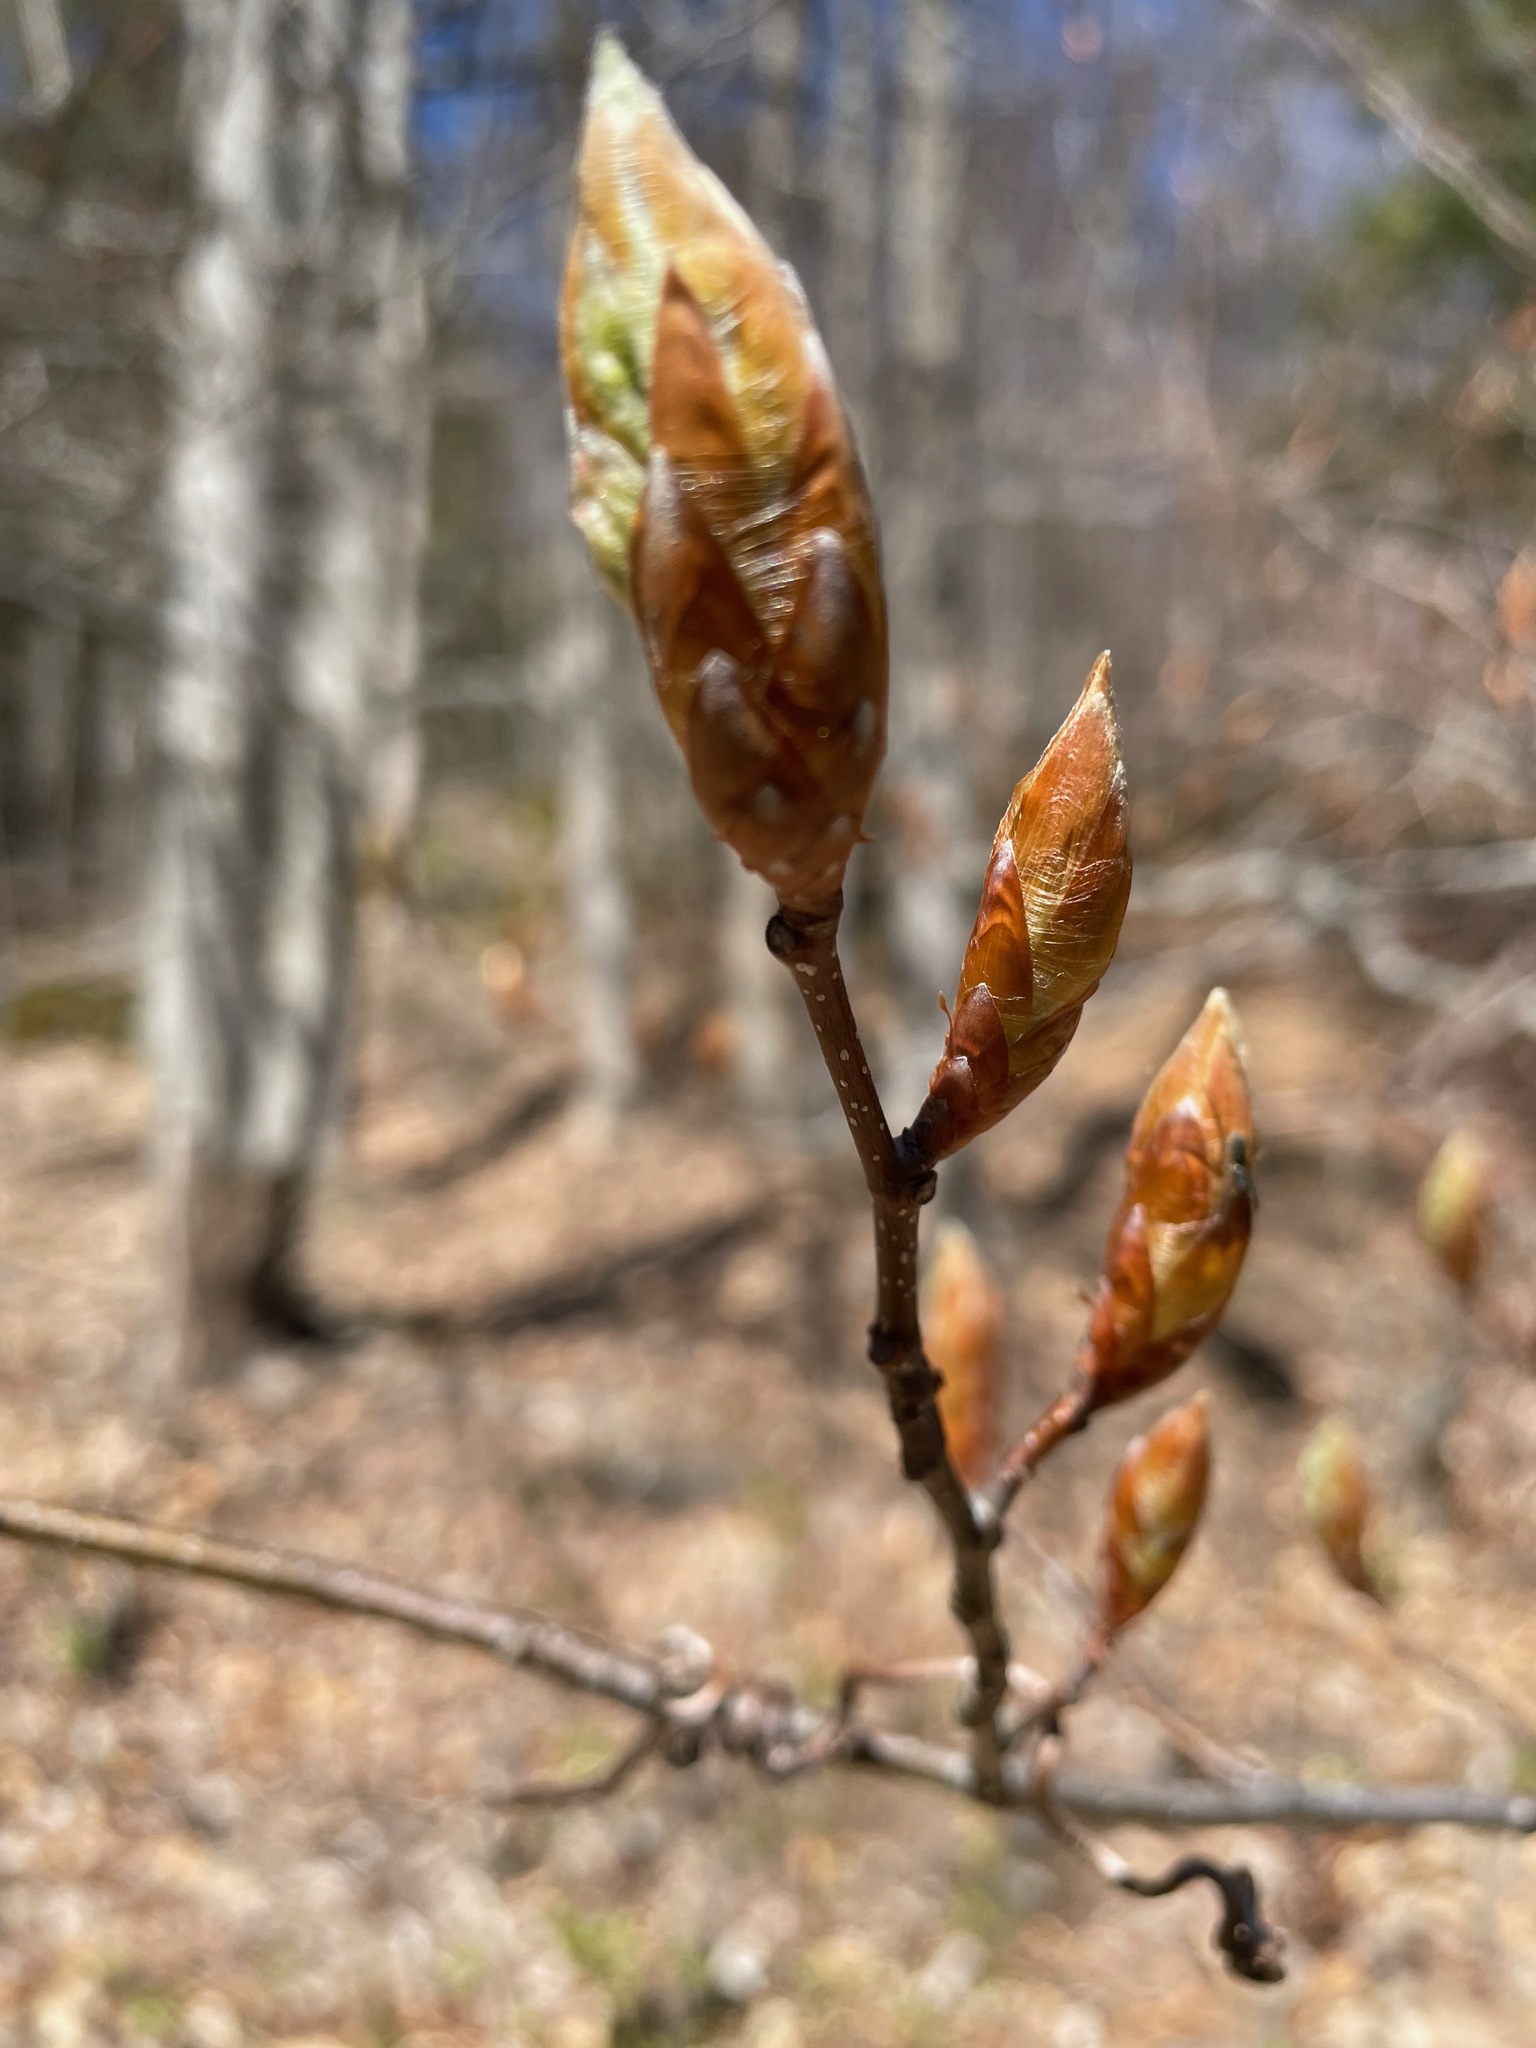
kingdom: Plantae
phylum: Tracheophyta
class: Magnoliopsida
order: Fagales
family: Fagaceae
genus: Fagus
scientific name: Fagus grandifolia
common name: American beech
